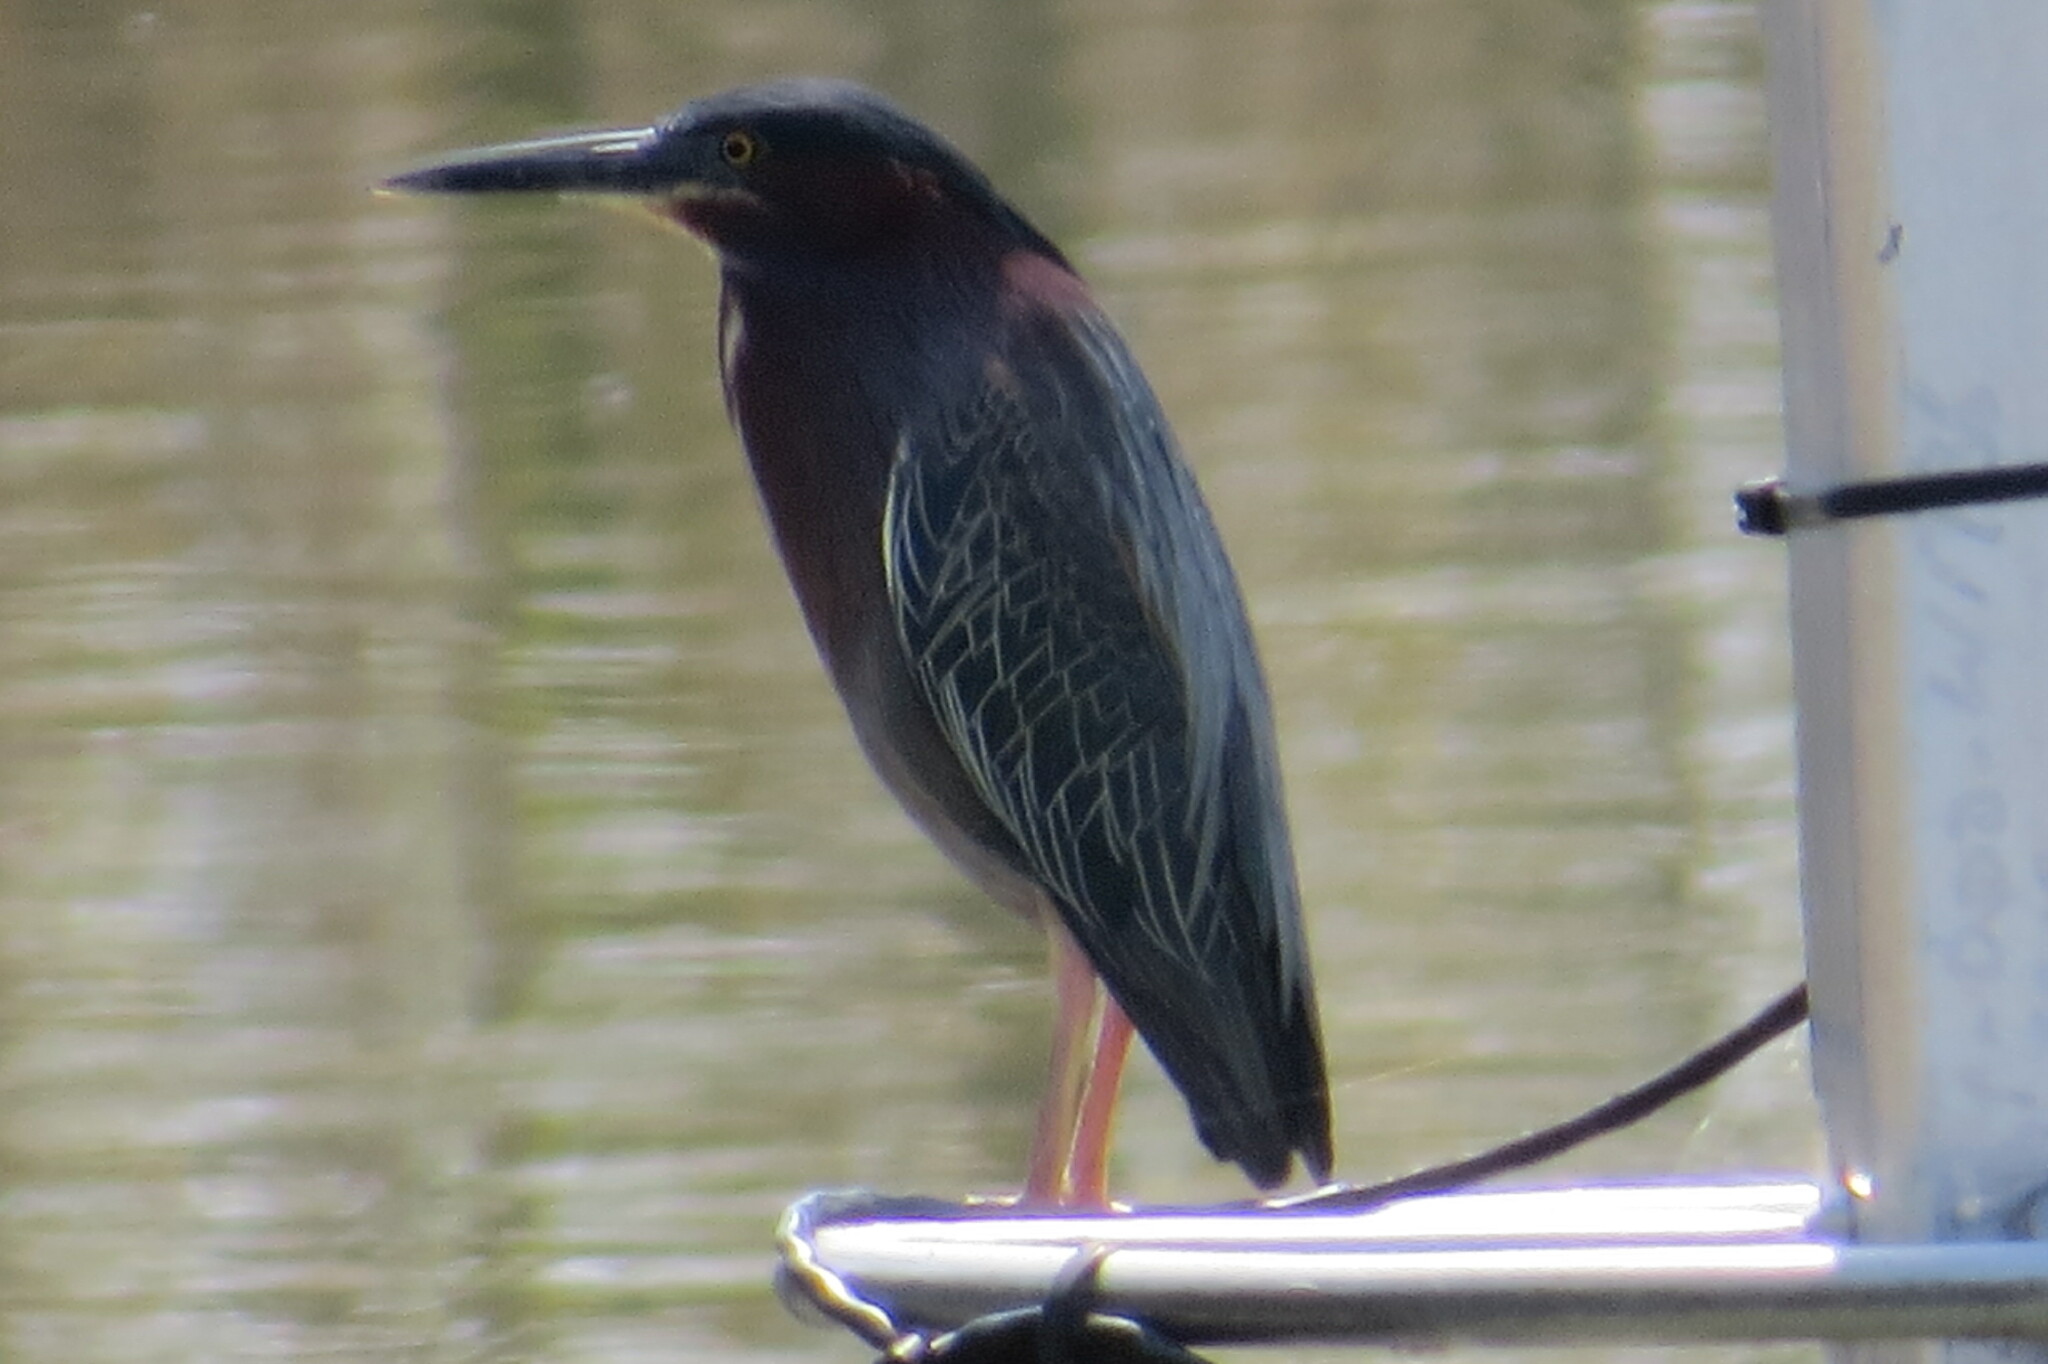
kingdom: Animalia
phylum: Chordata
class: Aves
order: Pelecaniformes
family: Ardeidae
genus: Butorides
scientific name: Butorides virescens
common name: Green heron
